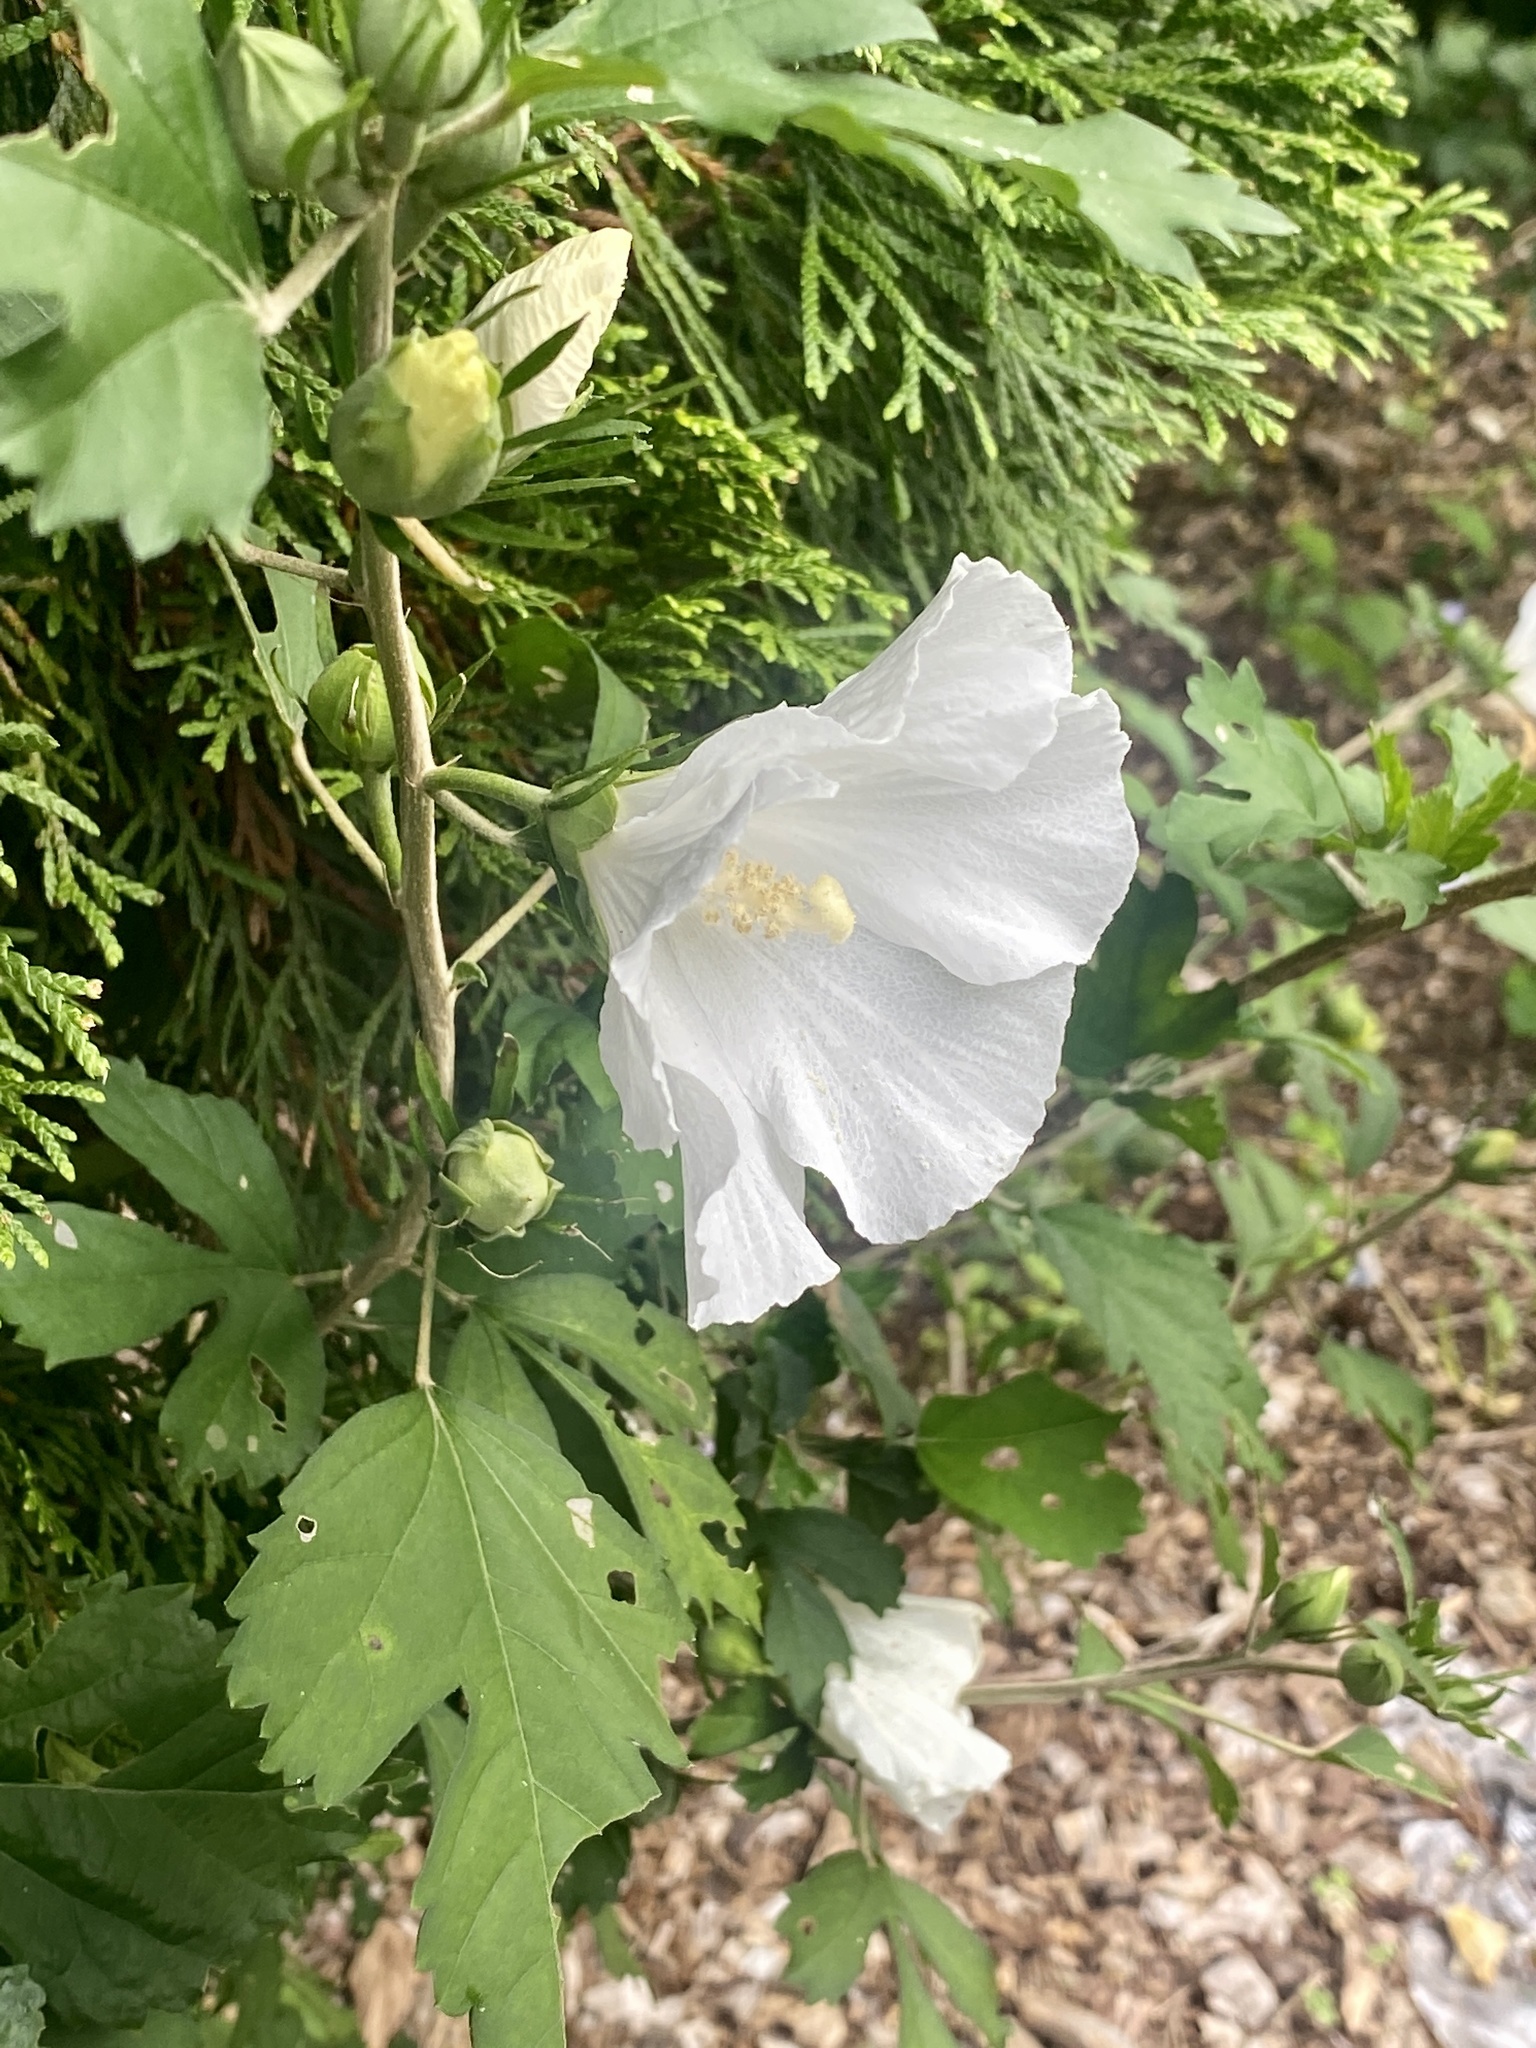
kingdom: Plantae
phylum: Tracheophyta
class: Magnoliopsida
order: Malvales
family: Malvaceae
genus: Hibiscus
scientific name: Hibiscus syriacus
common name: Syrian ketmia
